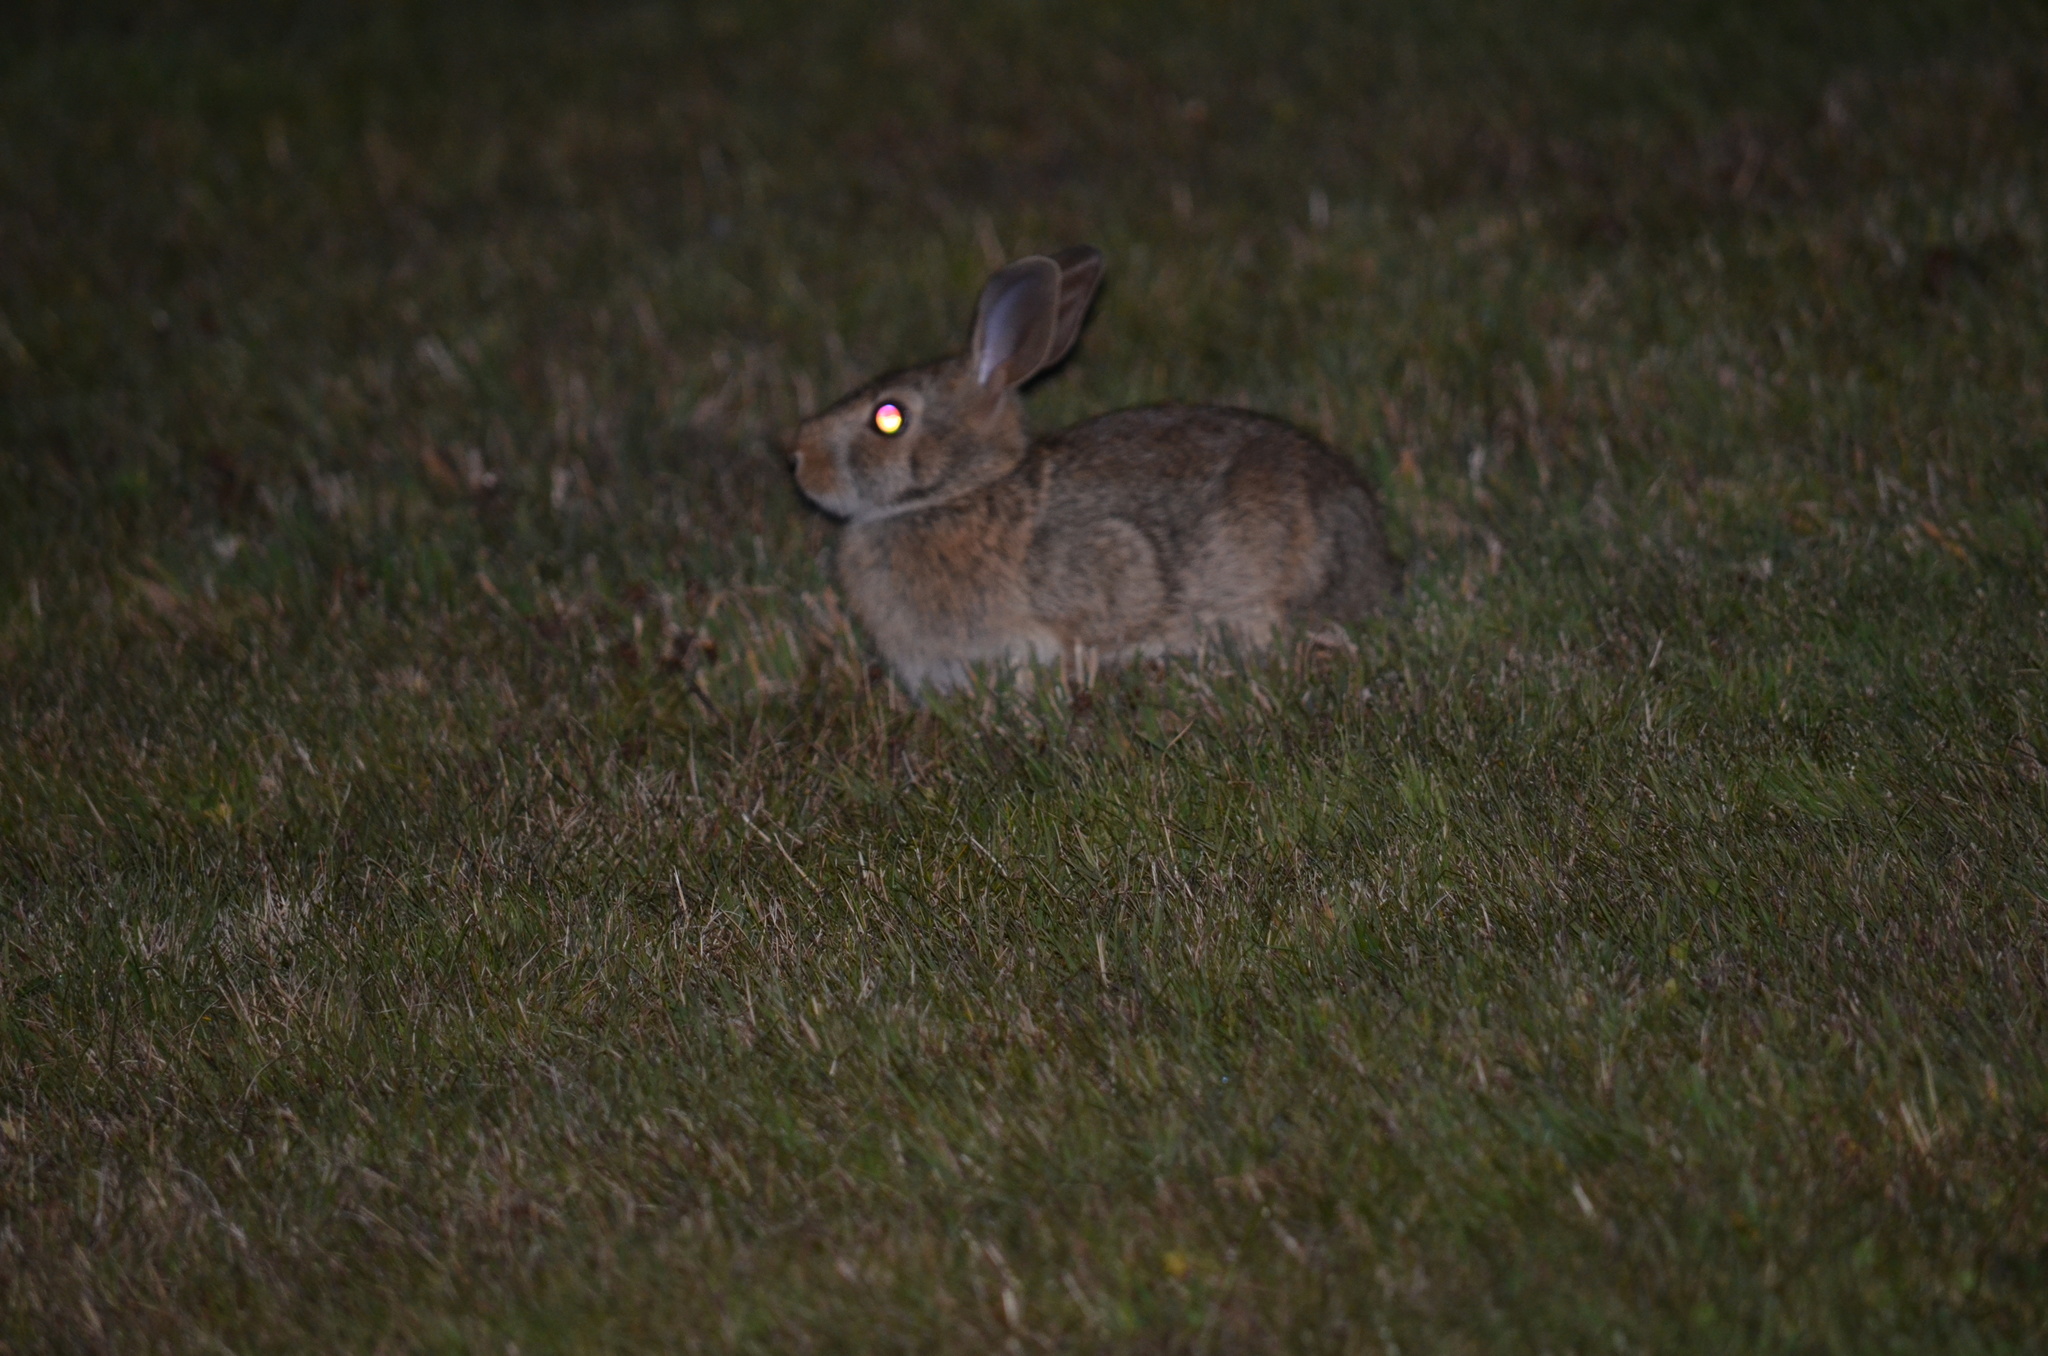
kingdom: Animalia
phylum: Chordata
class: Mammalia
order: Lagomorpha
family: Leporidae
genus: Sylvilagus
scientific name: Sylvilagus floridanus
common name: Eastern cottontail
